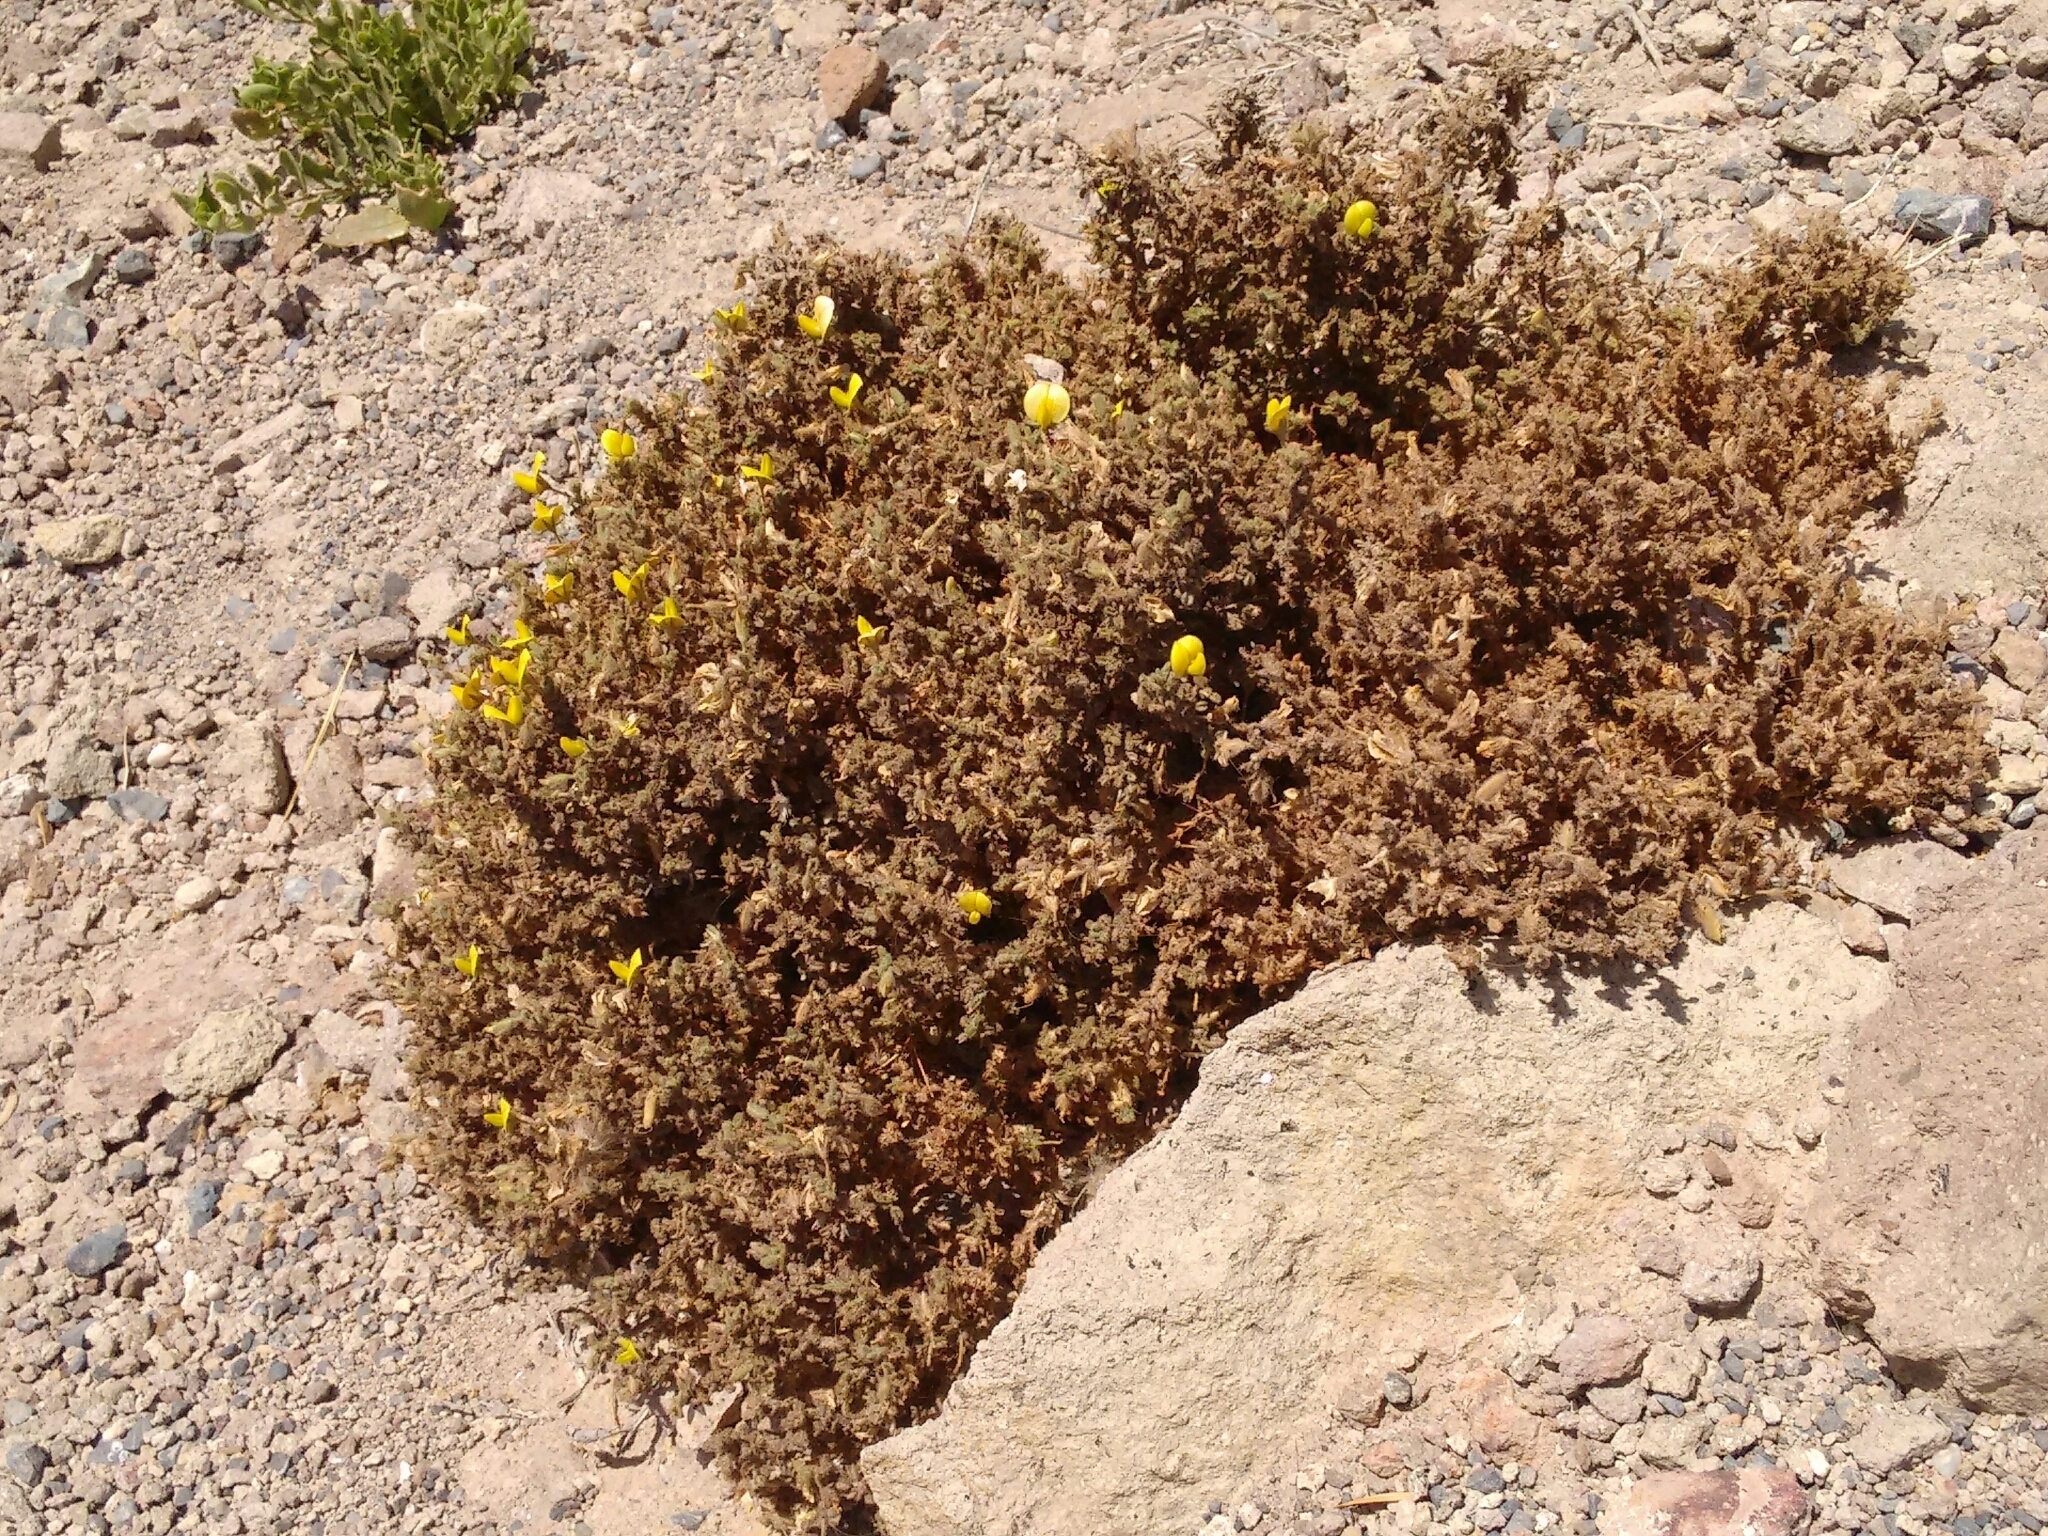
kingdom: Plantae
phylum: Tracheophyta
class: Magnoliopsida
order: Fabales
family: Fabaceae
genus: Ononis
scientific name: Ononis natrix
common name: Yellow restharrow
